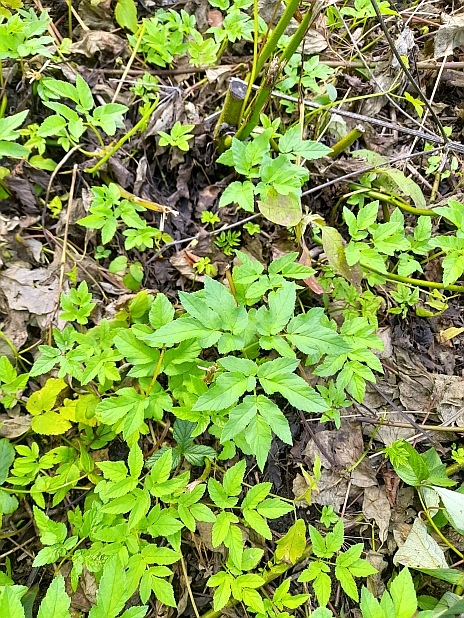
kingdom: Plantae
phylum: Tracheophyta
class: Magnoliopsida
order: Apiales
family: Apiaceae
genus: Aegopodium
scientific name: Aegopodium podagraria
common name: Ground-elder
